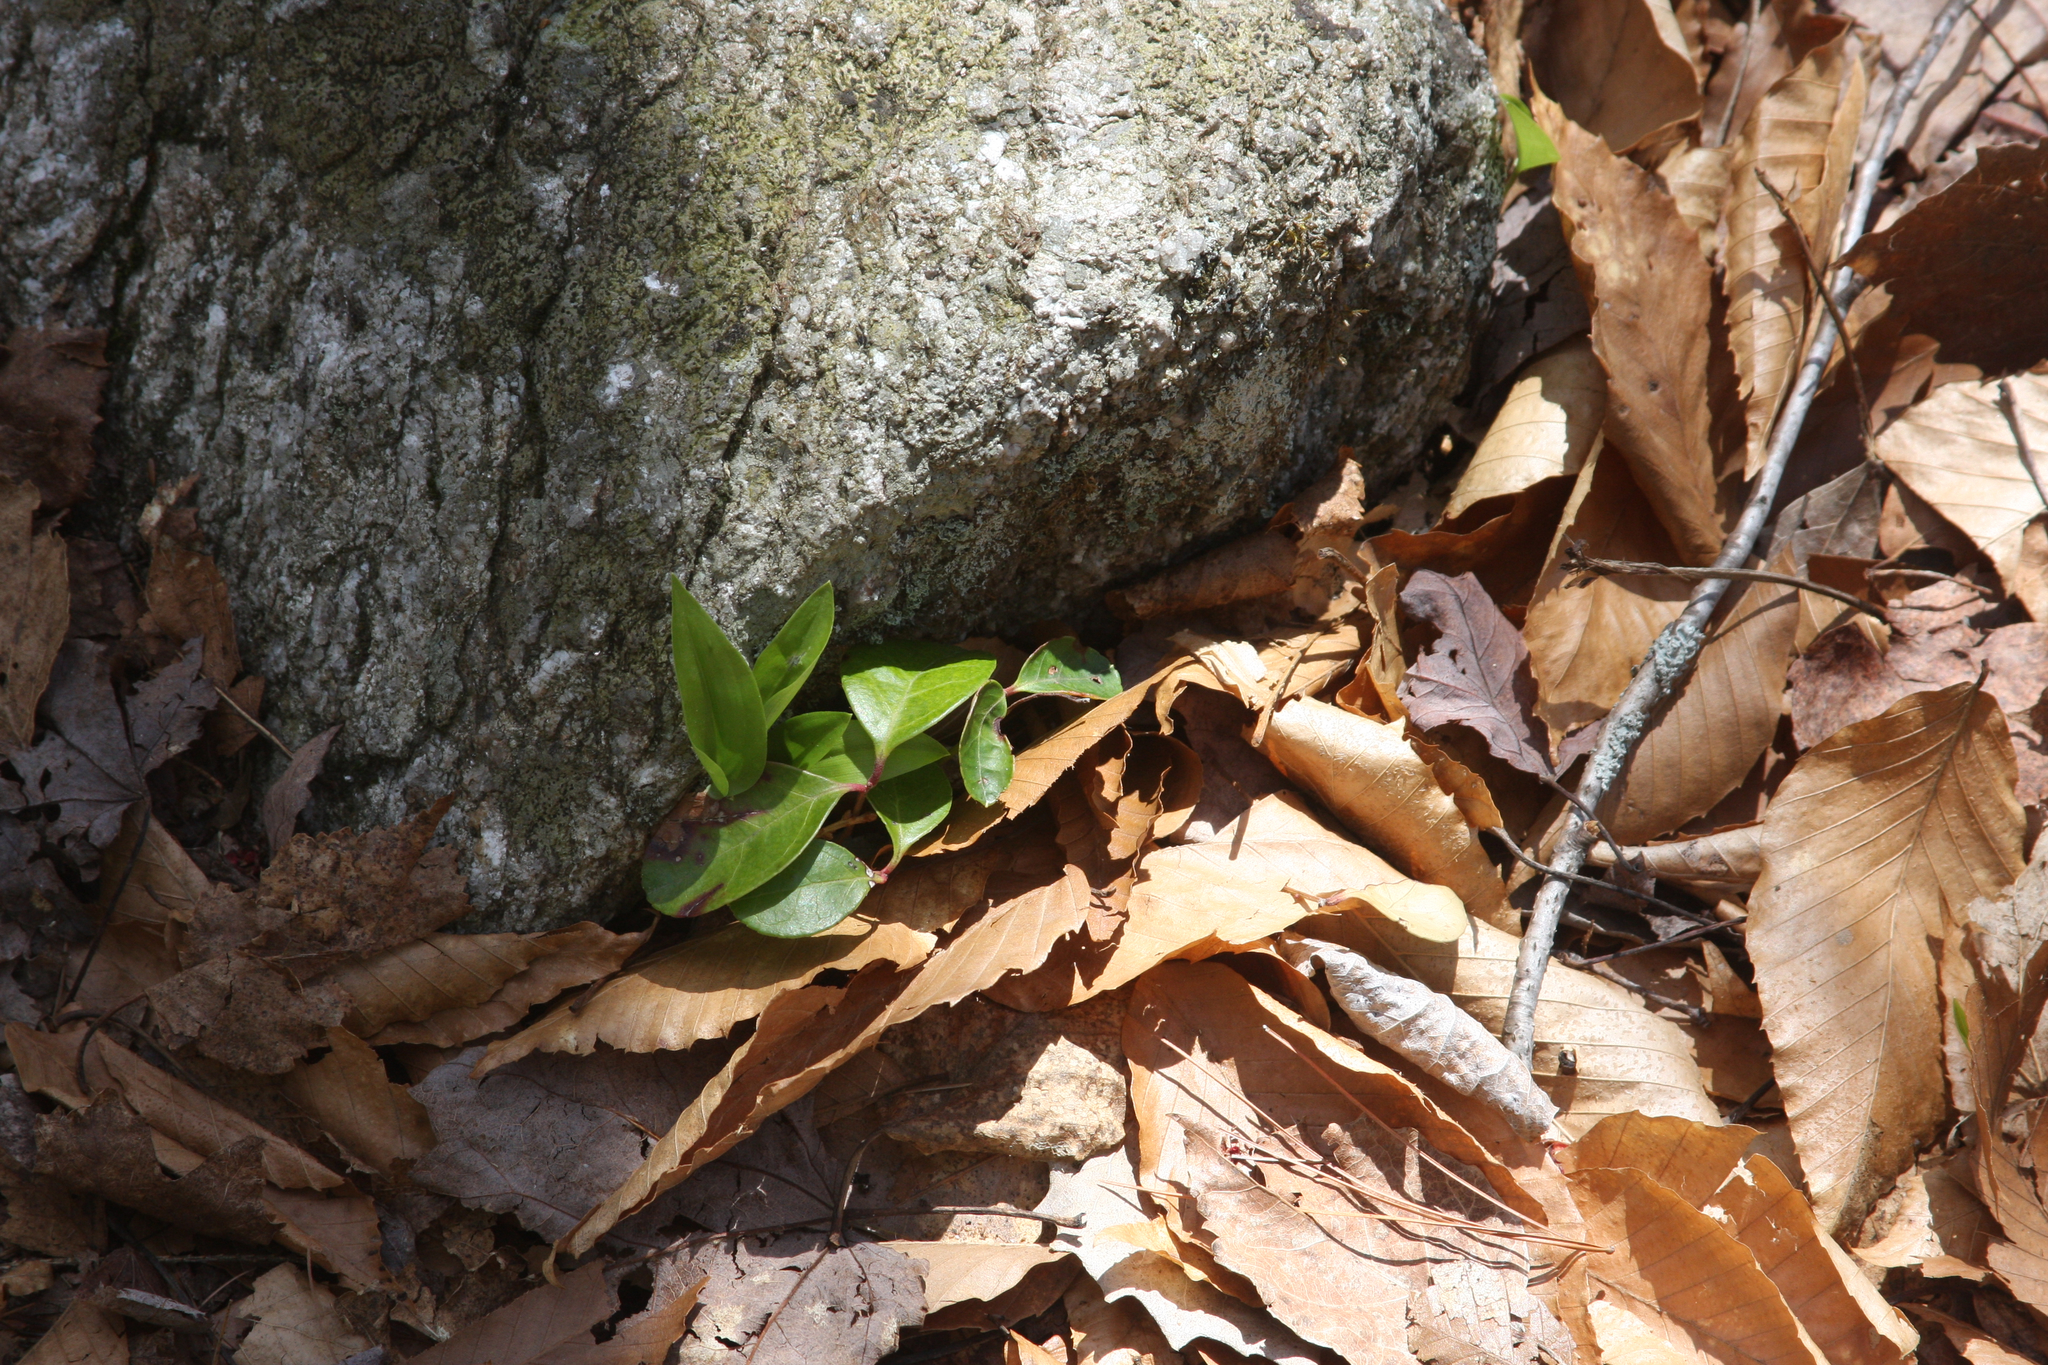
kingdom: Plantae
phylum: Tracheophyta
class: Liliopsida
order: Asparagales
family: Asparagaceae
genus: Maianthemum
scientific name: Maianthemum canadense
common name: False lily-of-the-valley
